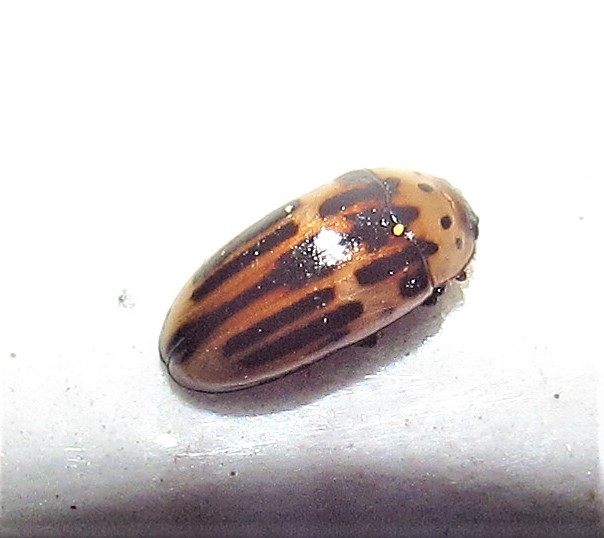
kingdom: Animalia
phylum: Arthropoda
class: Insecta
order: Coleoptera
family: Erotylidae
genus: Ischyrus
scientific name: Ischyrus
